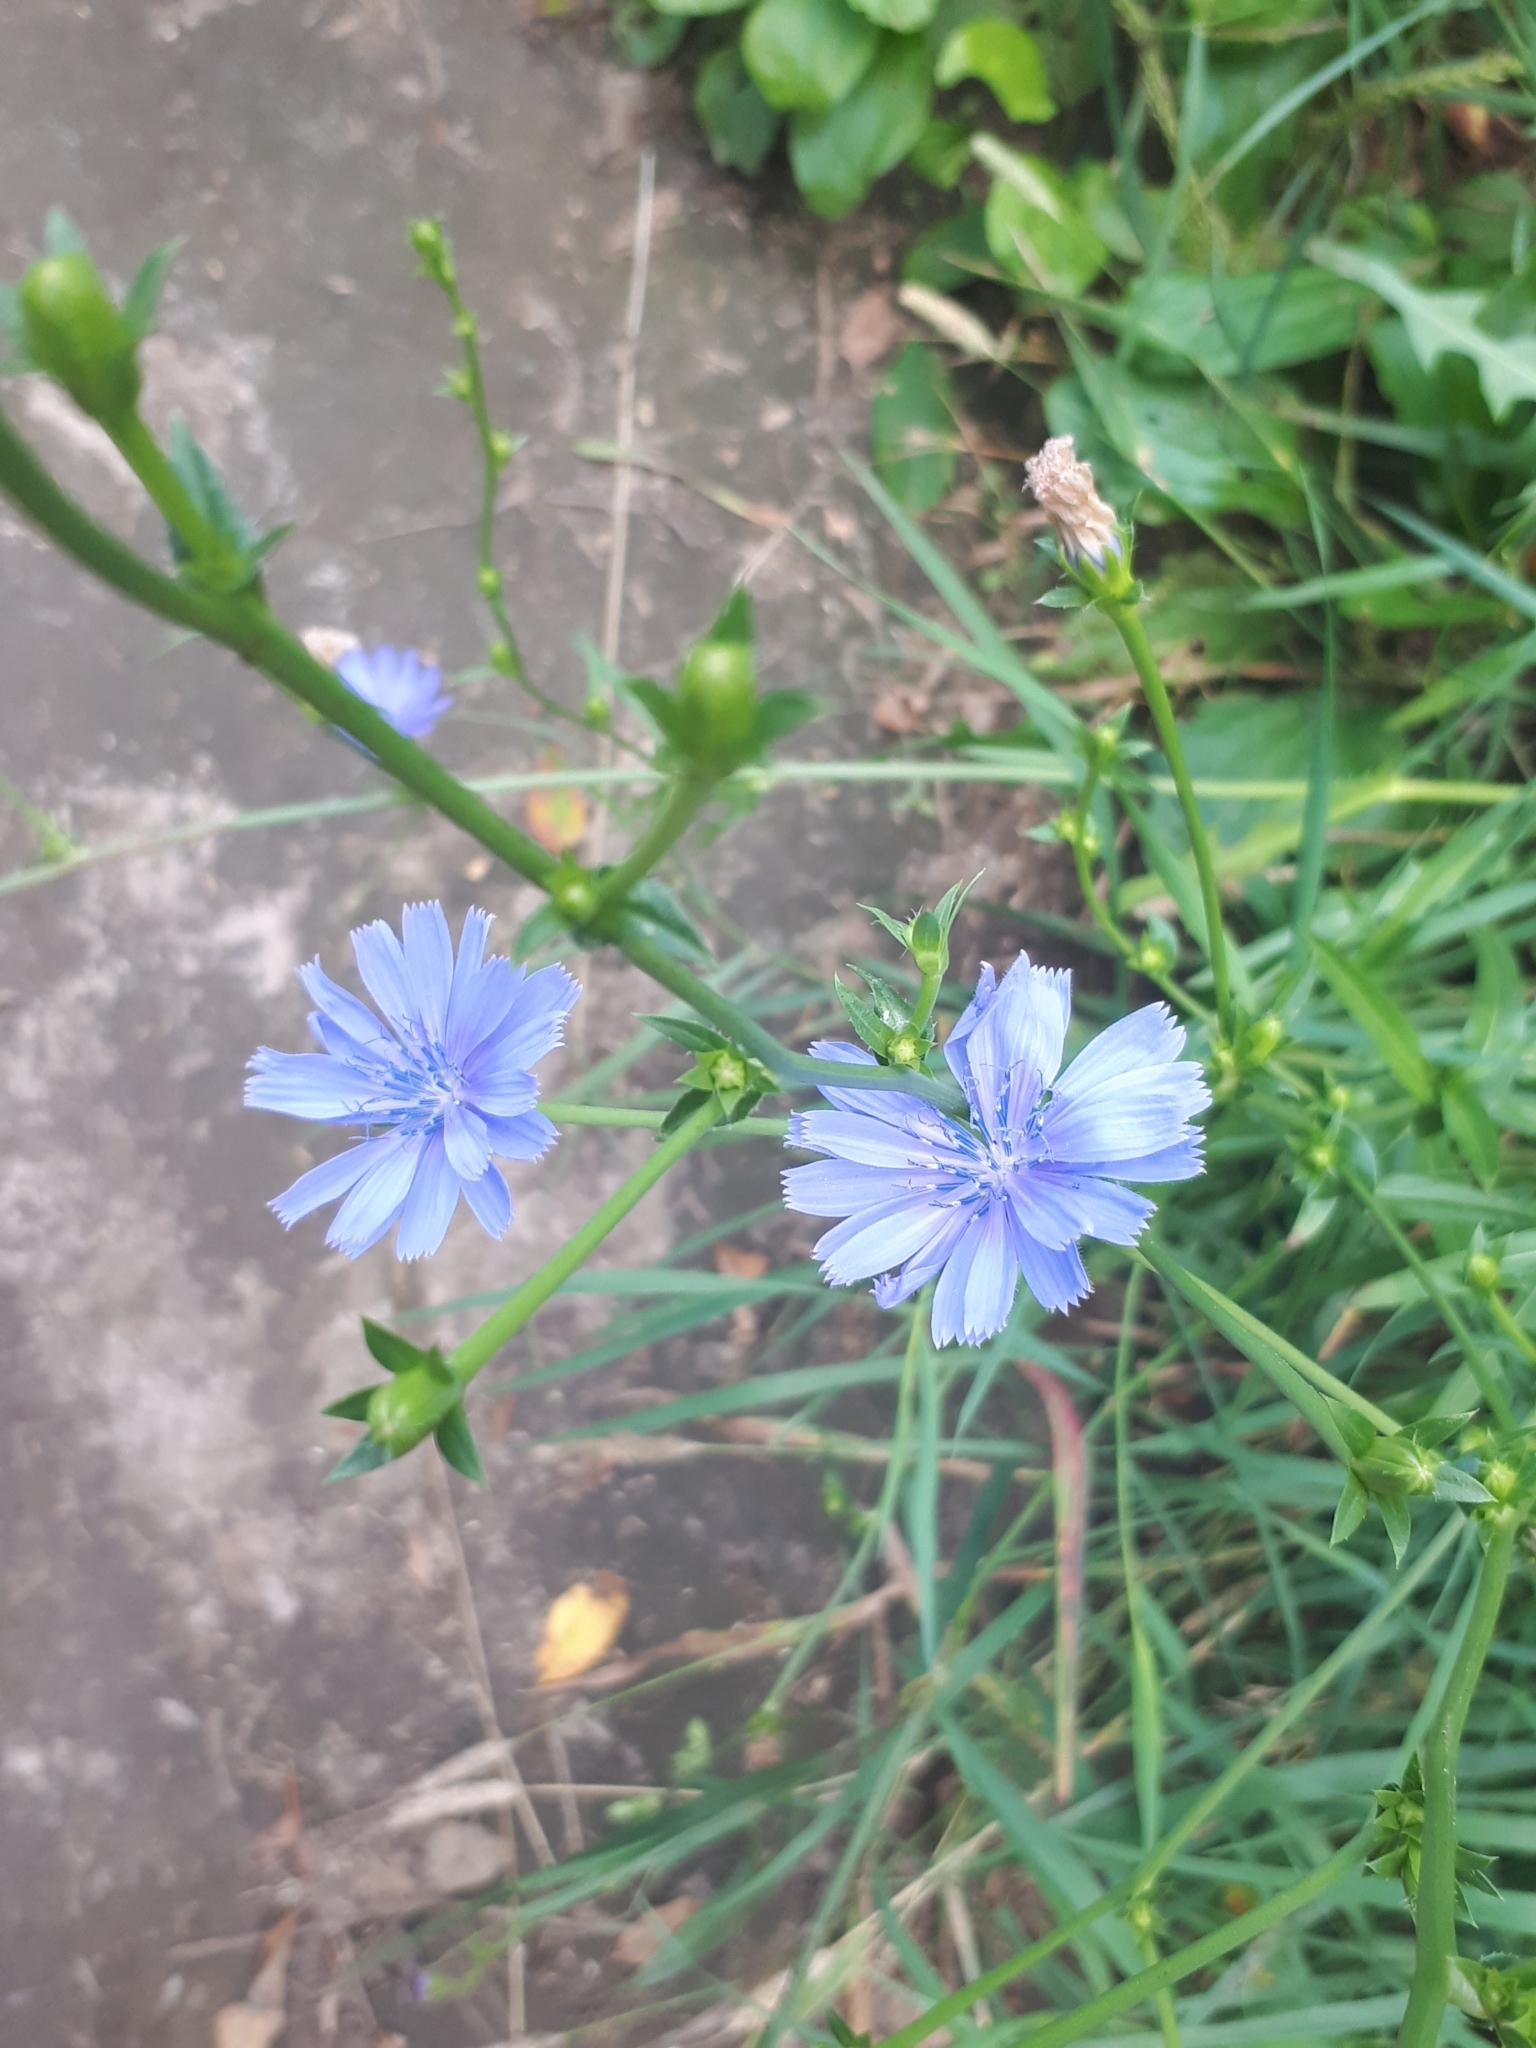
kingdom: Plantae
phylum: Tracheophyta
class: Magnoliopsida
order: Asterales
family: Asteraceae
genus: Cichorium
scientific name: Cichorium intybus
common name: Chicory
